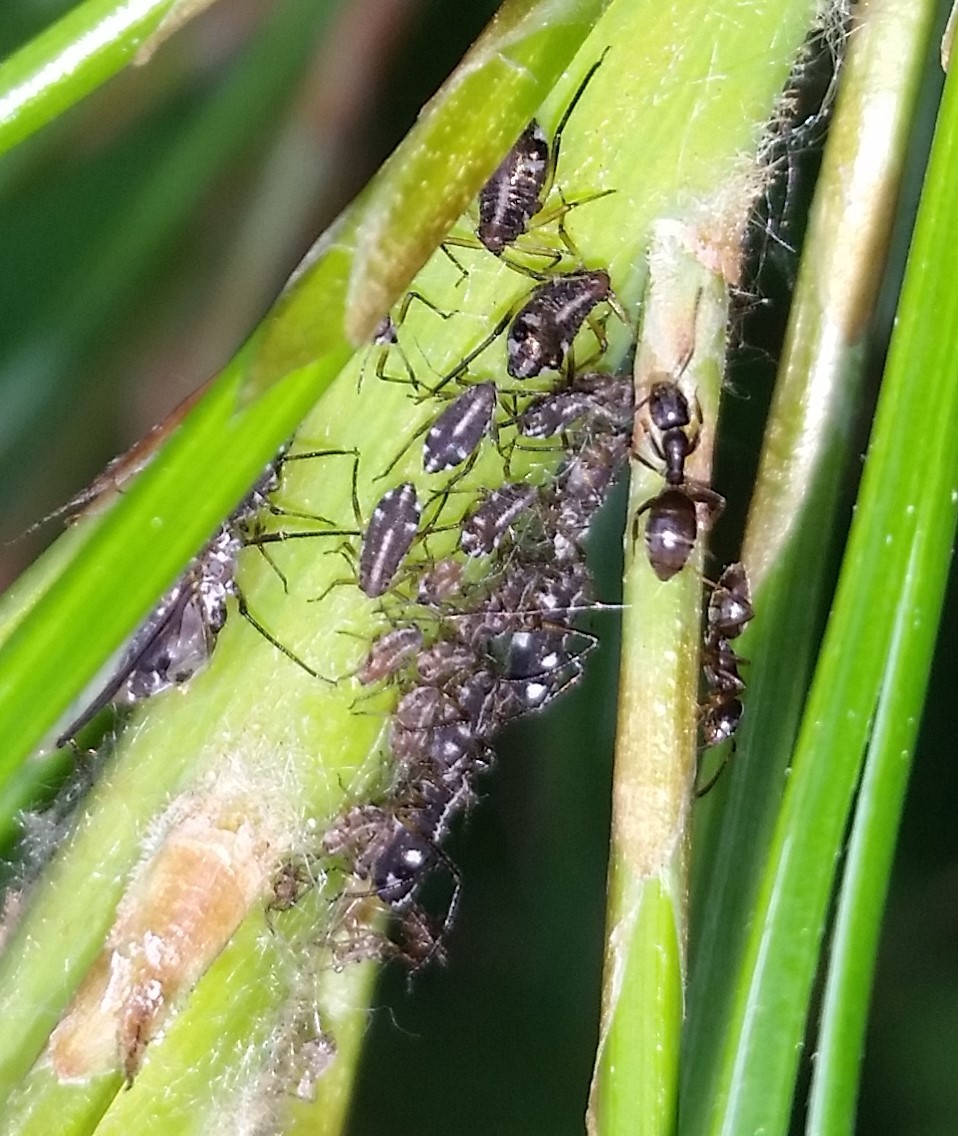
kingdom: Animalia
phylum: Arthropoda
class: Insecta
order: Hemiptera
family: Aphididae
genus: Cinara
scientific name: Cinara strobi
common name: White pine aphid
